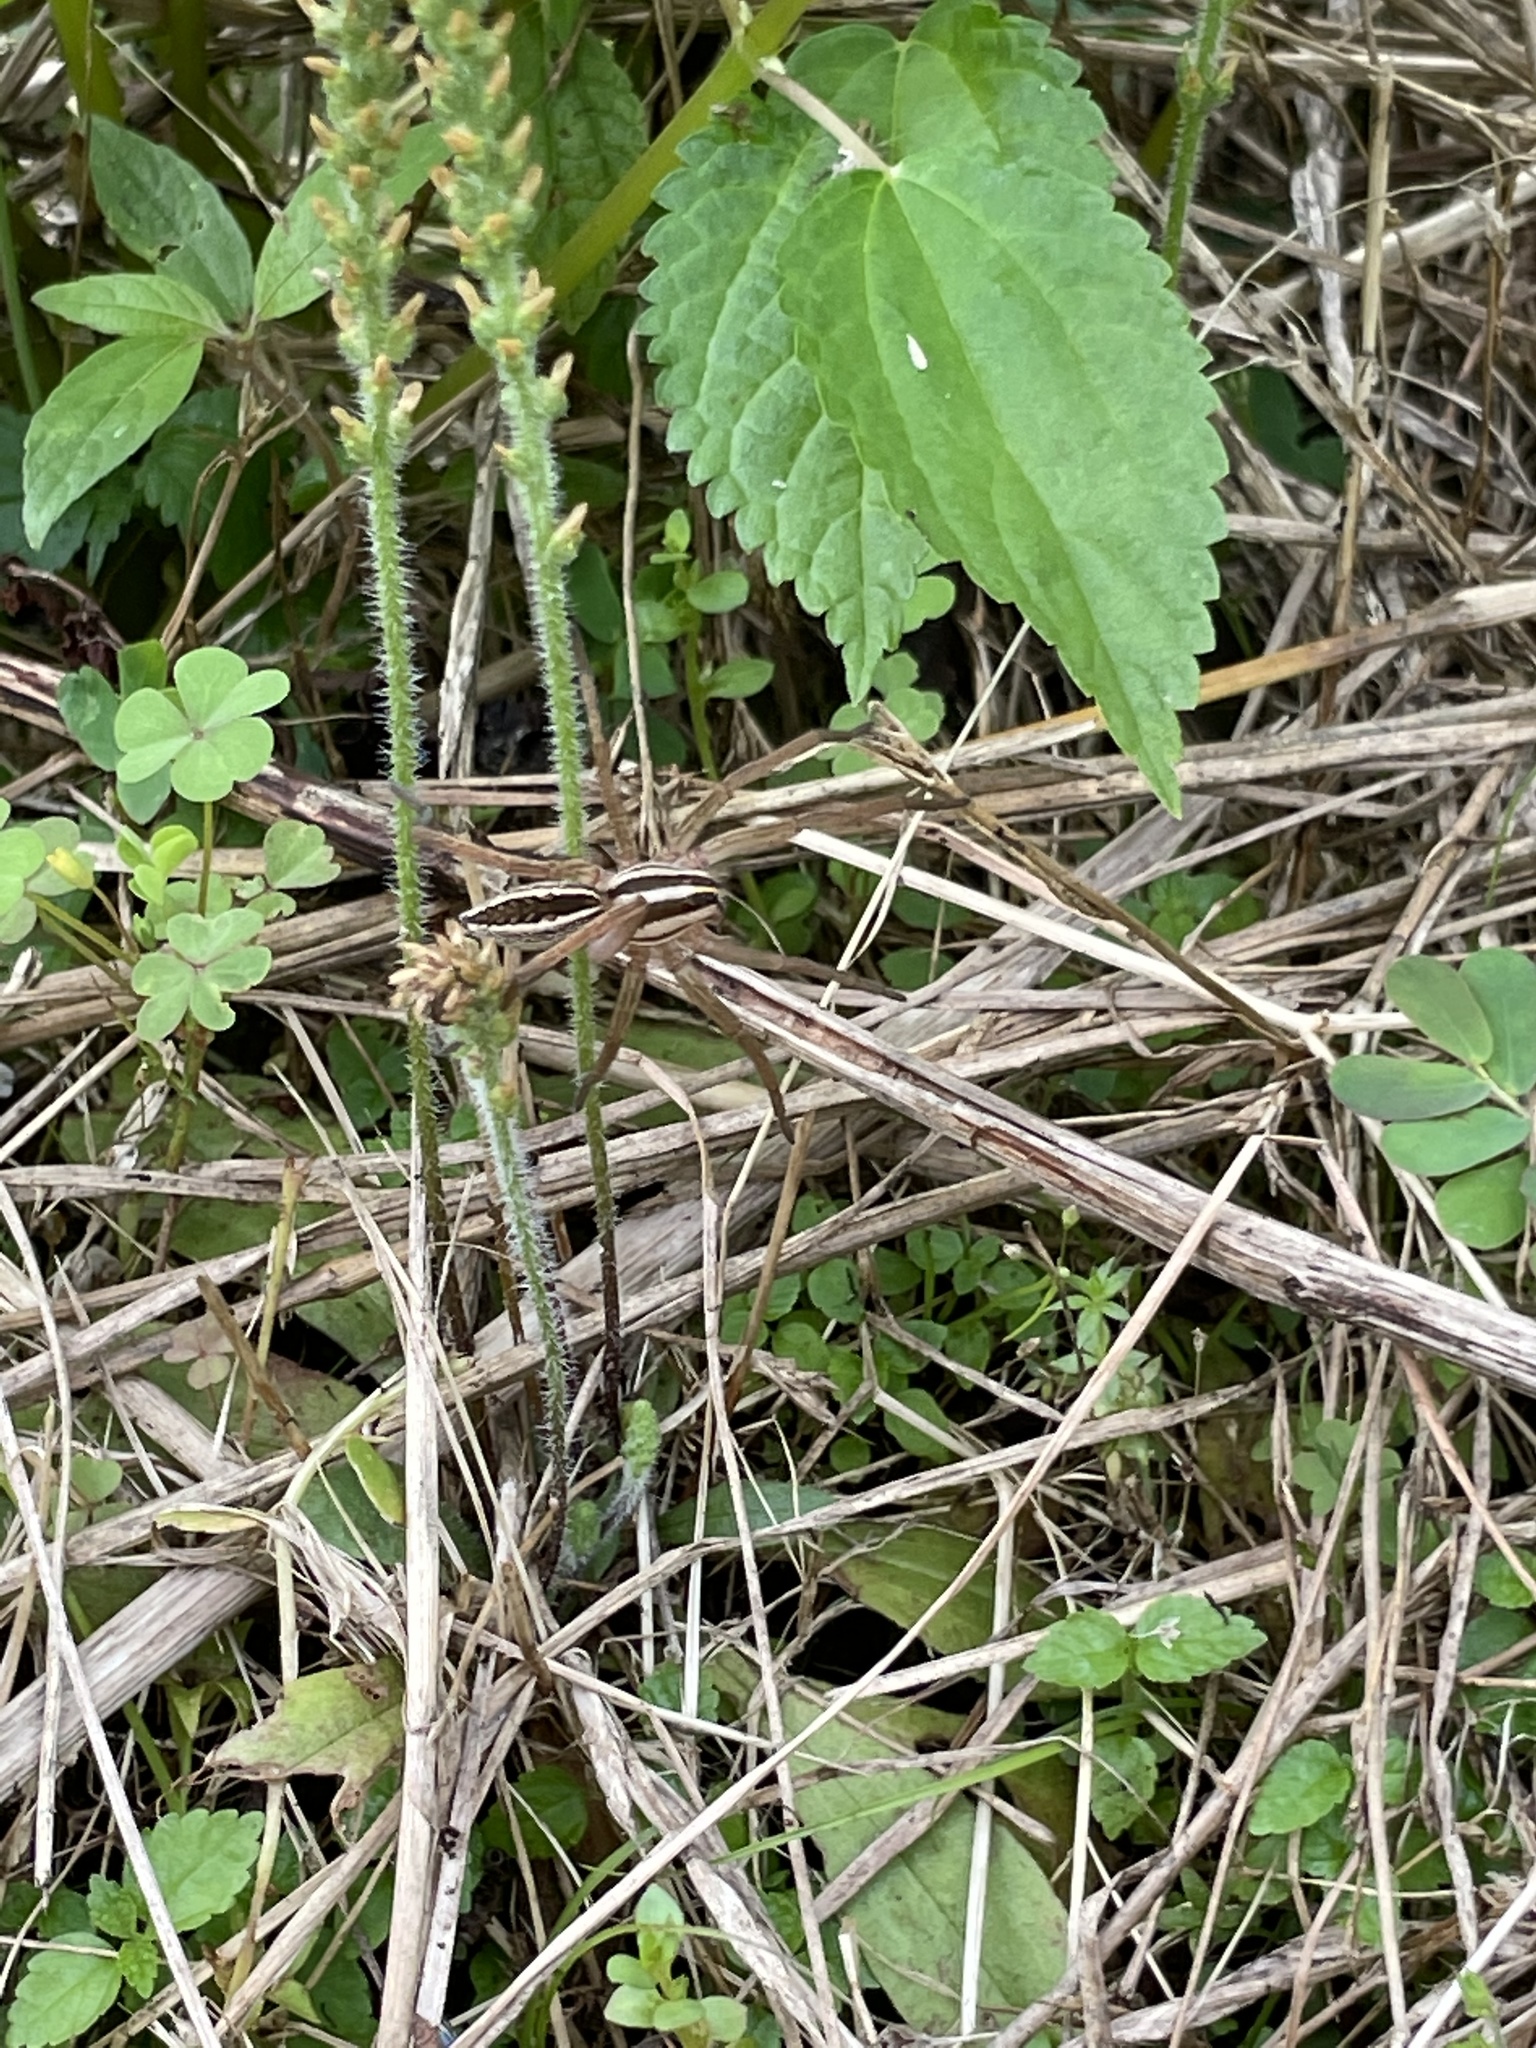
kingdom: Animalia
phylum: Arthropoda
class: Arachnida
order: Araneae
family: Lycosidae
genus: Rabidosa
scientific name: Rabidosa rabida
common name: Rabid wolf spider
